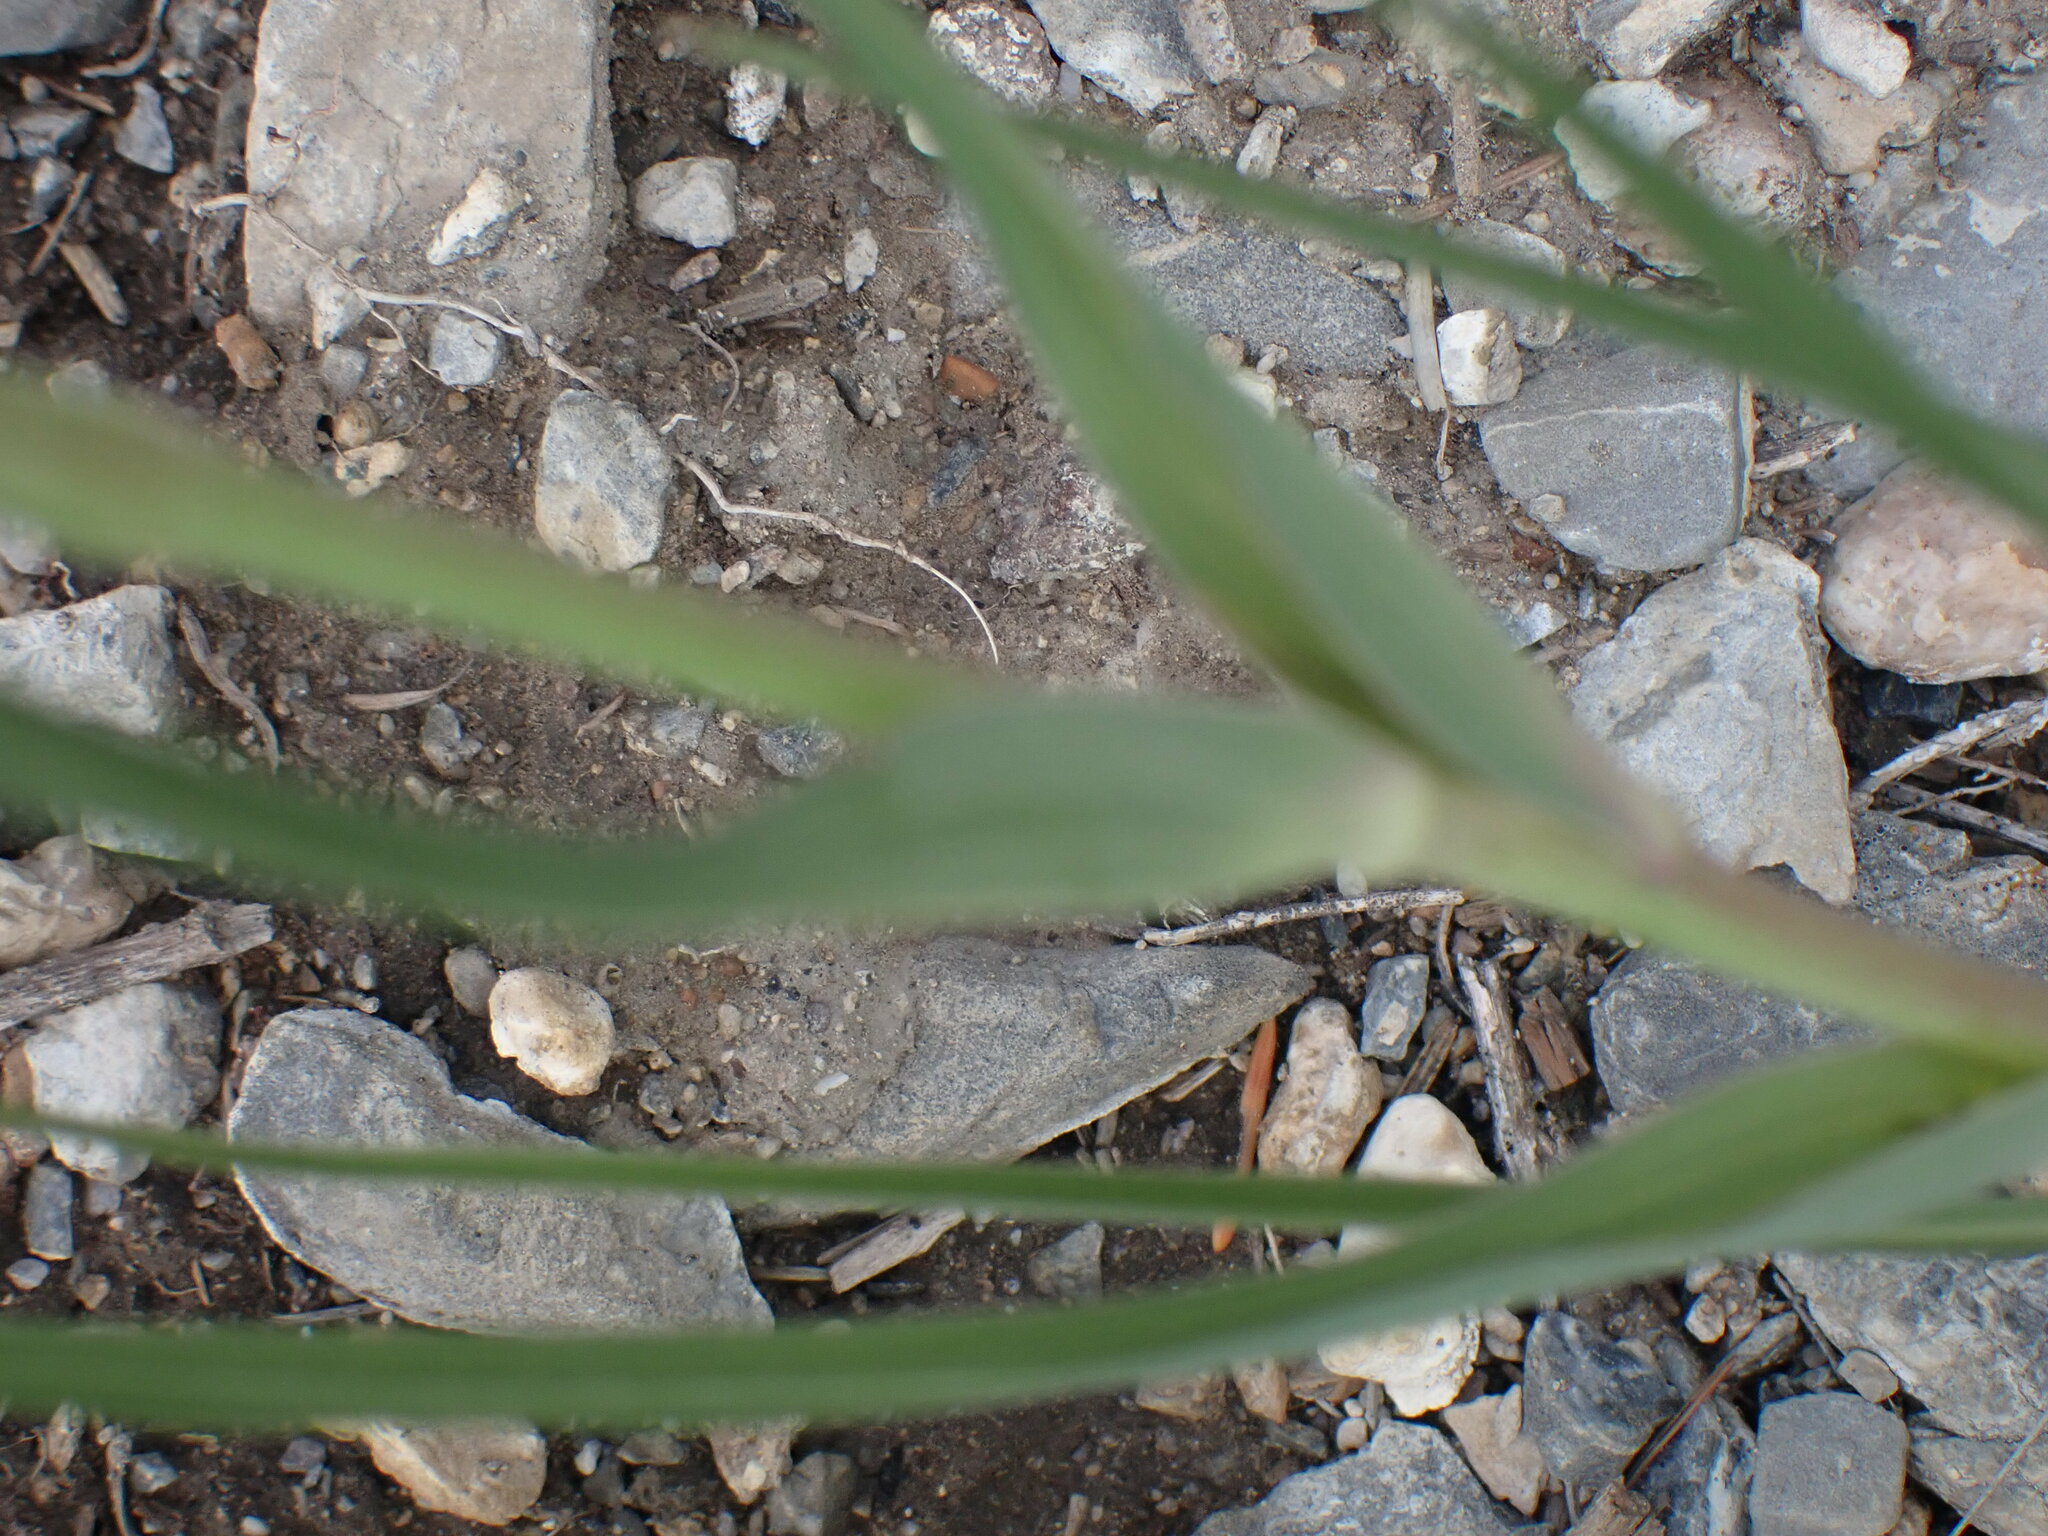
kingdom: Plantae
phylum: Tracheophyta
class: Magnoliopsida
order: Asterales
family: Asteraceae
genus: Tragopogon
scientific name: Tragopogon dubius
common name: Yellow salsify
